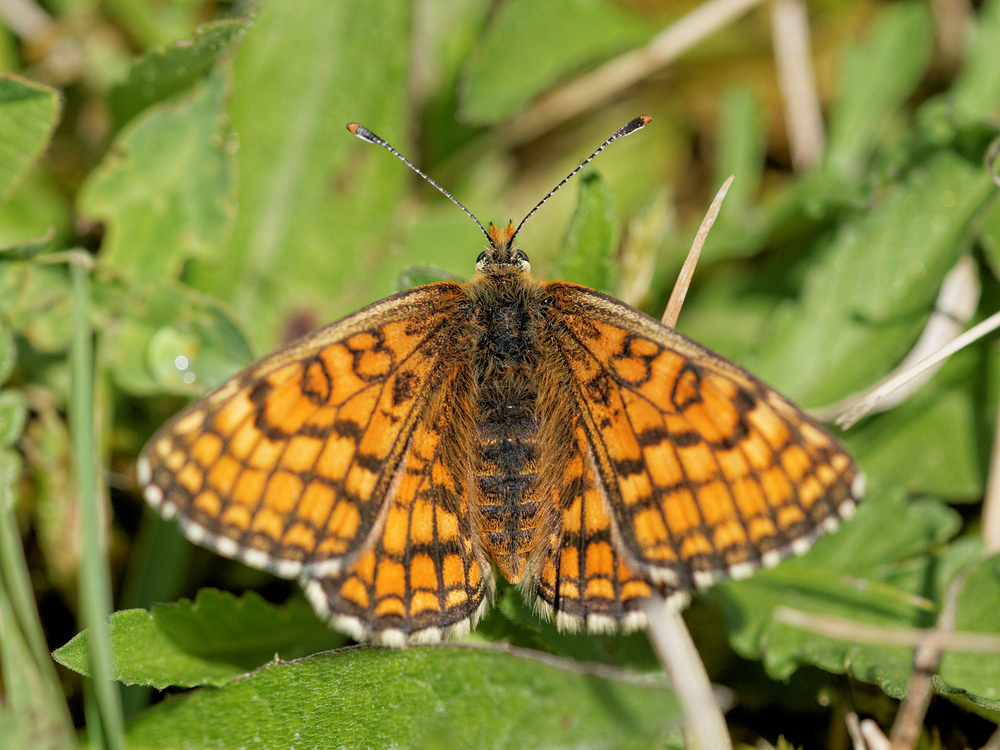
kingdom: Animalia
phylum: Arthropoda
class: Insecta
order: Lepidoptera
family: Nymphalidae
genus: Mellicta
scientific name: Mellicta parthenoides
